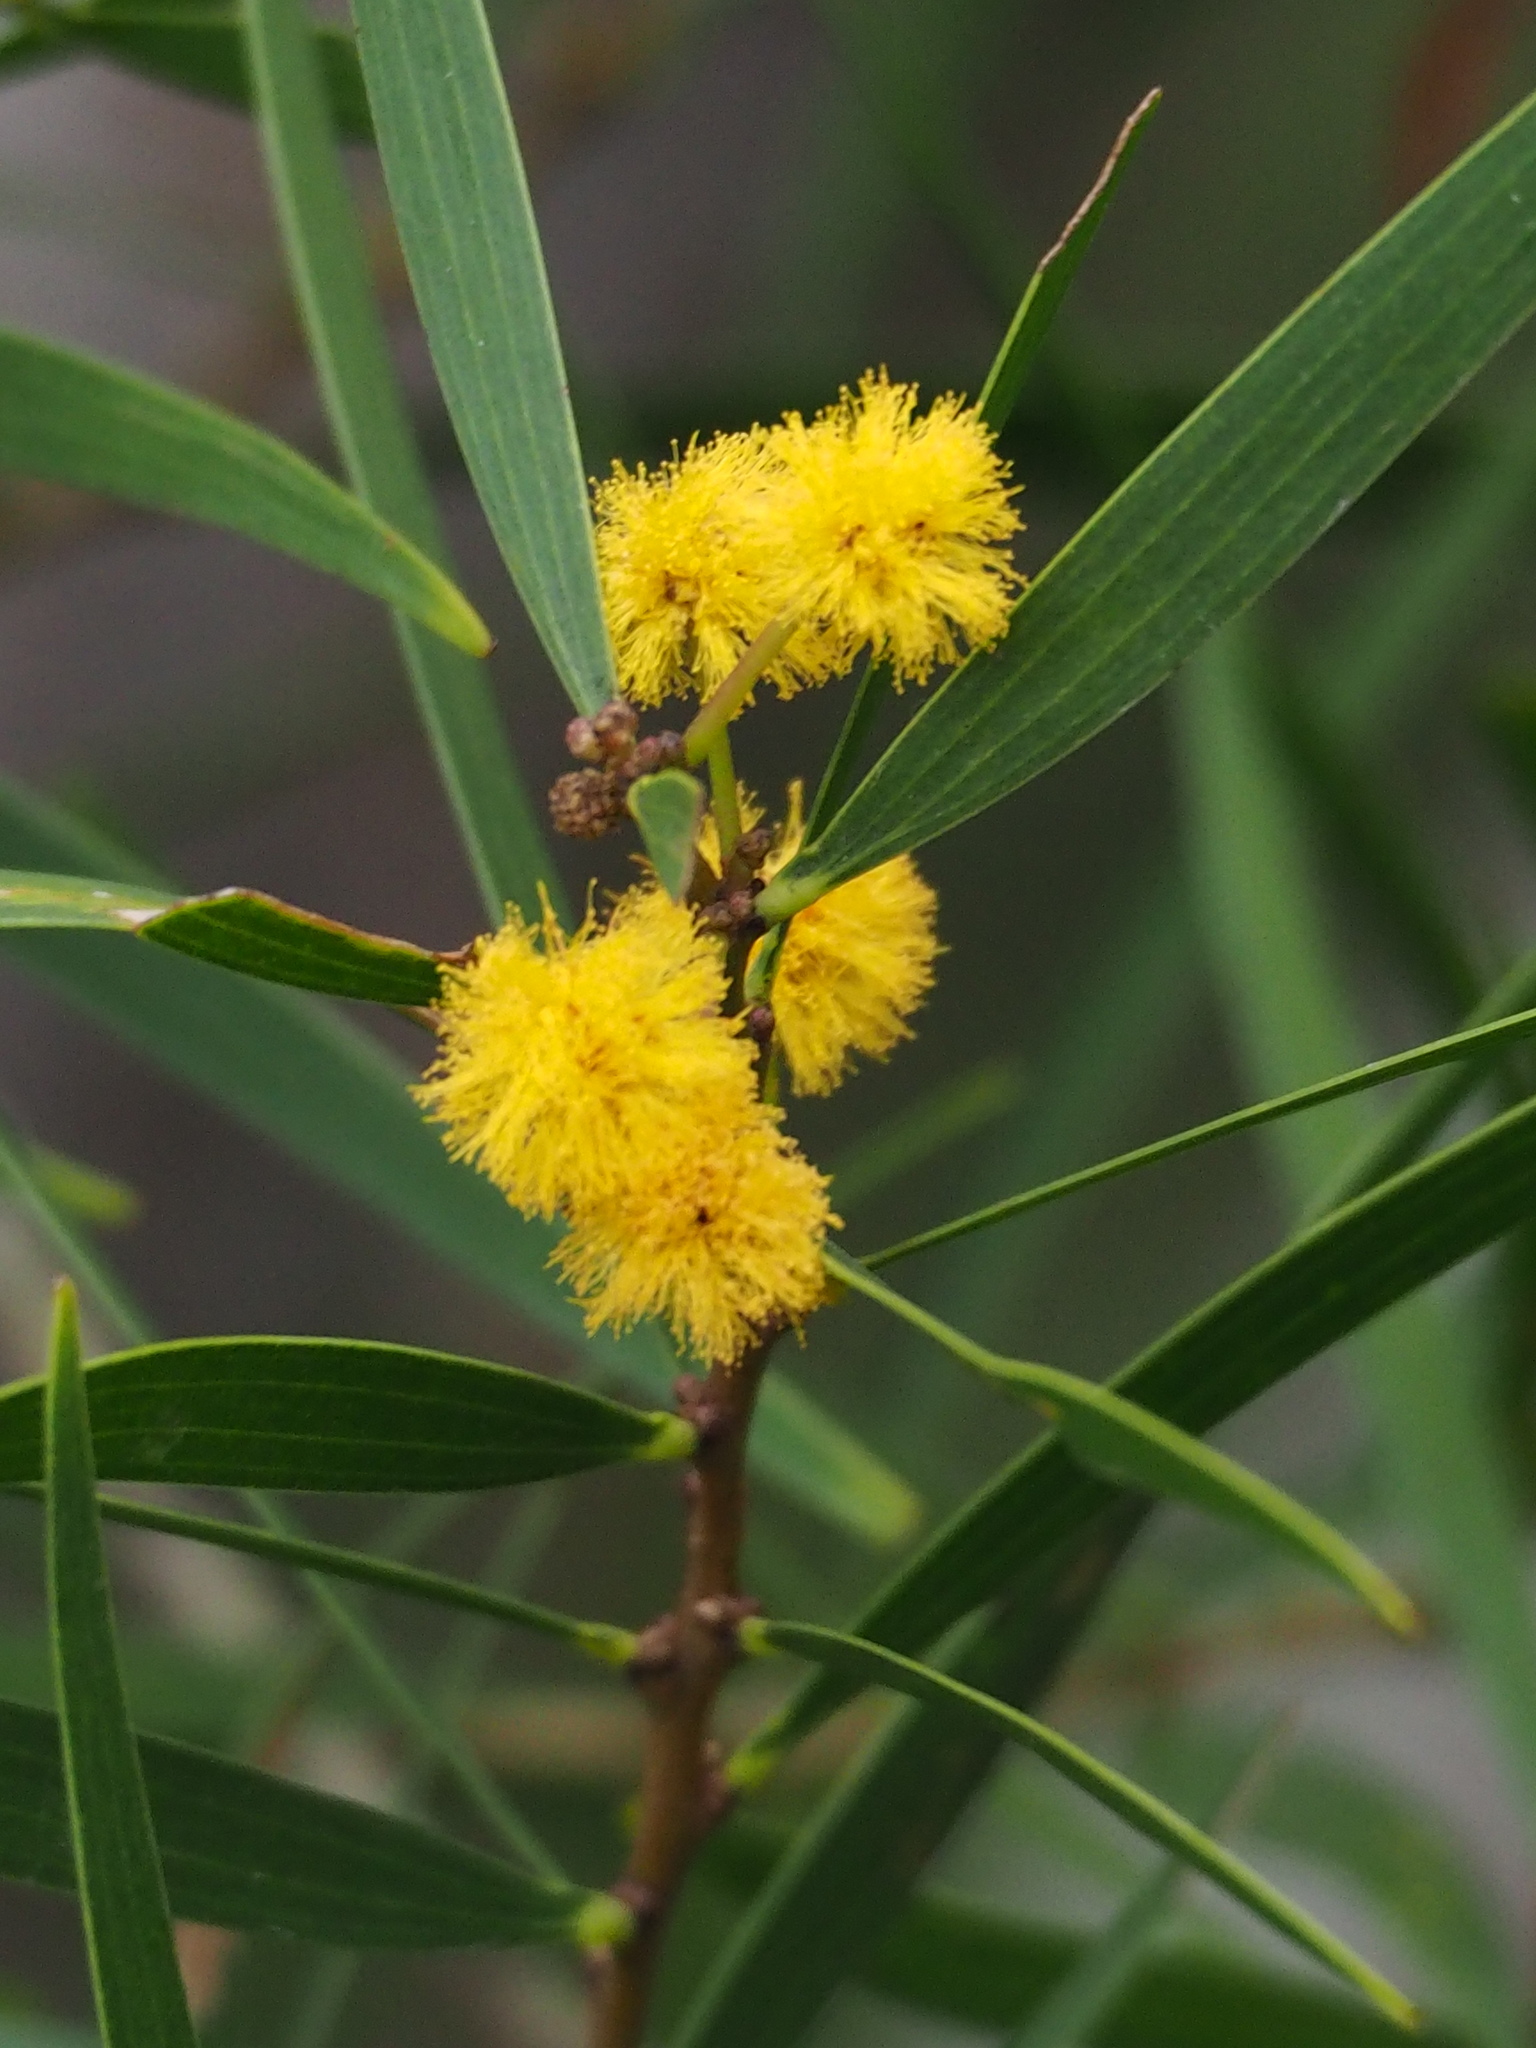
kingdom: Plantae
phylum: Tracheophyta
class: Magnoliopsida
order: Fabales
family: Fabaceae
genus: Acacia
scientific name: Acacia confusa
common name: Formosan koa
